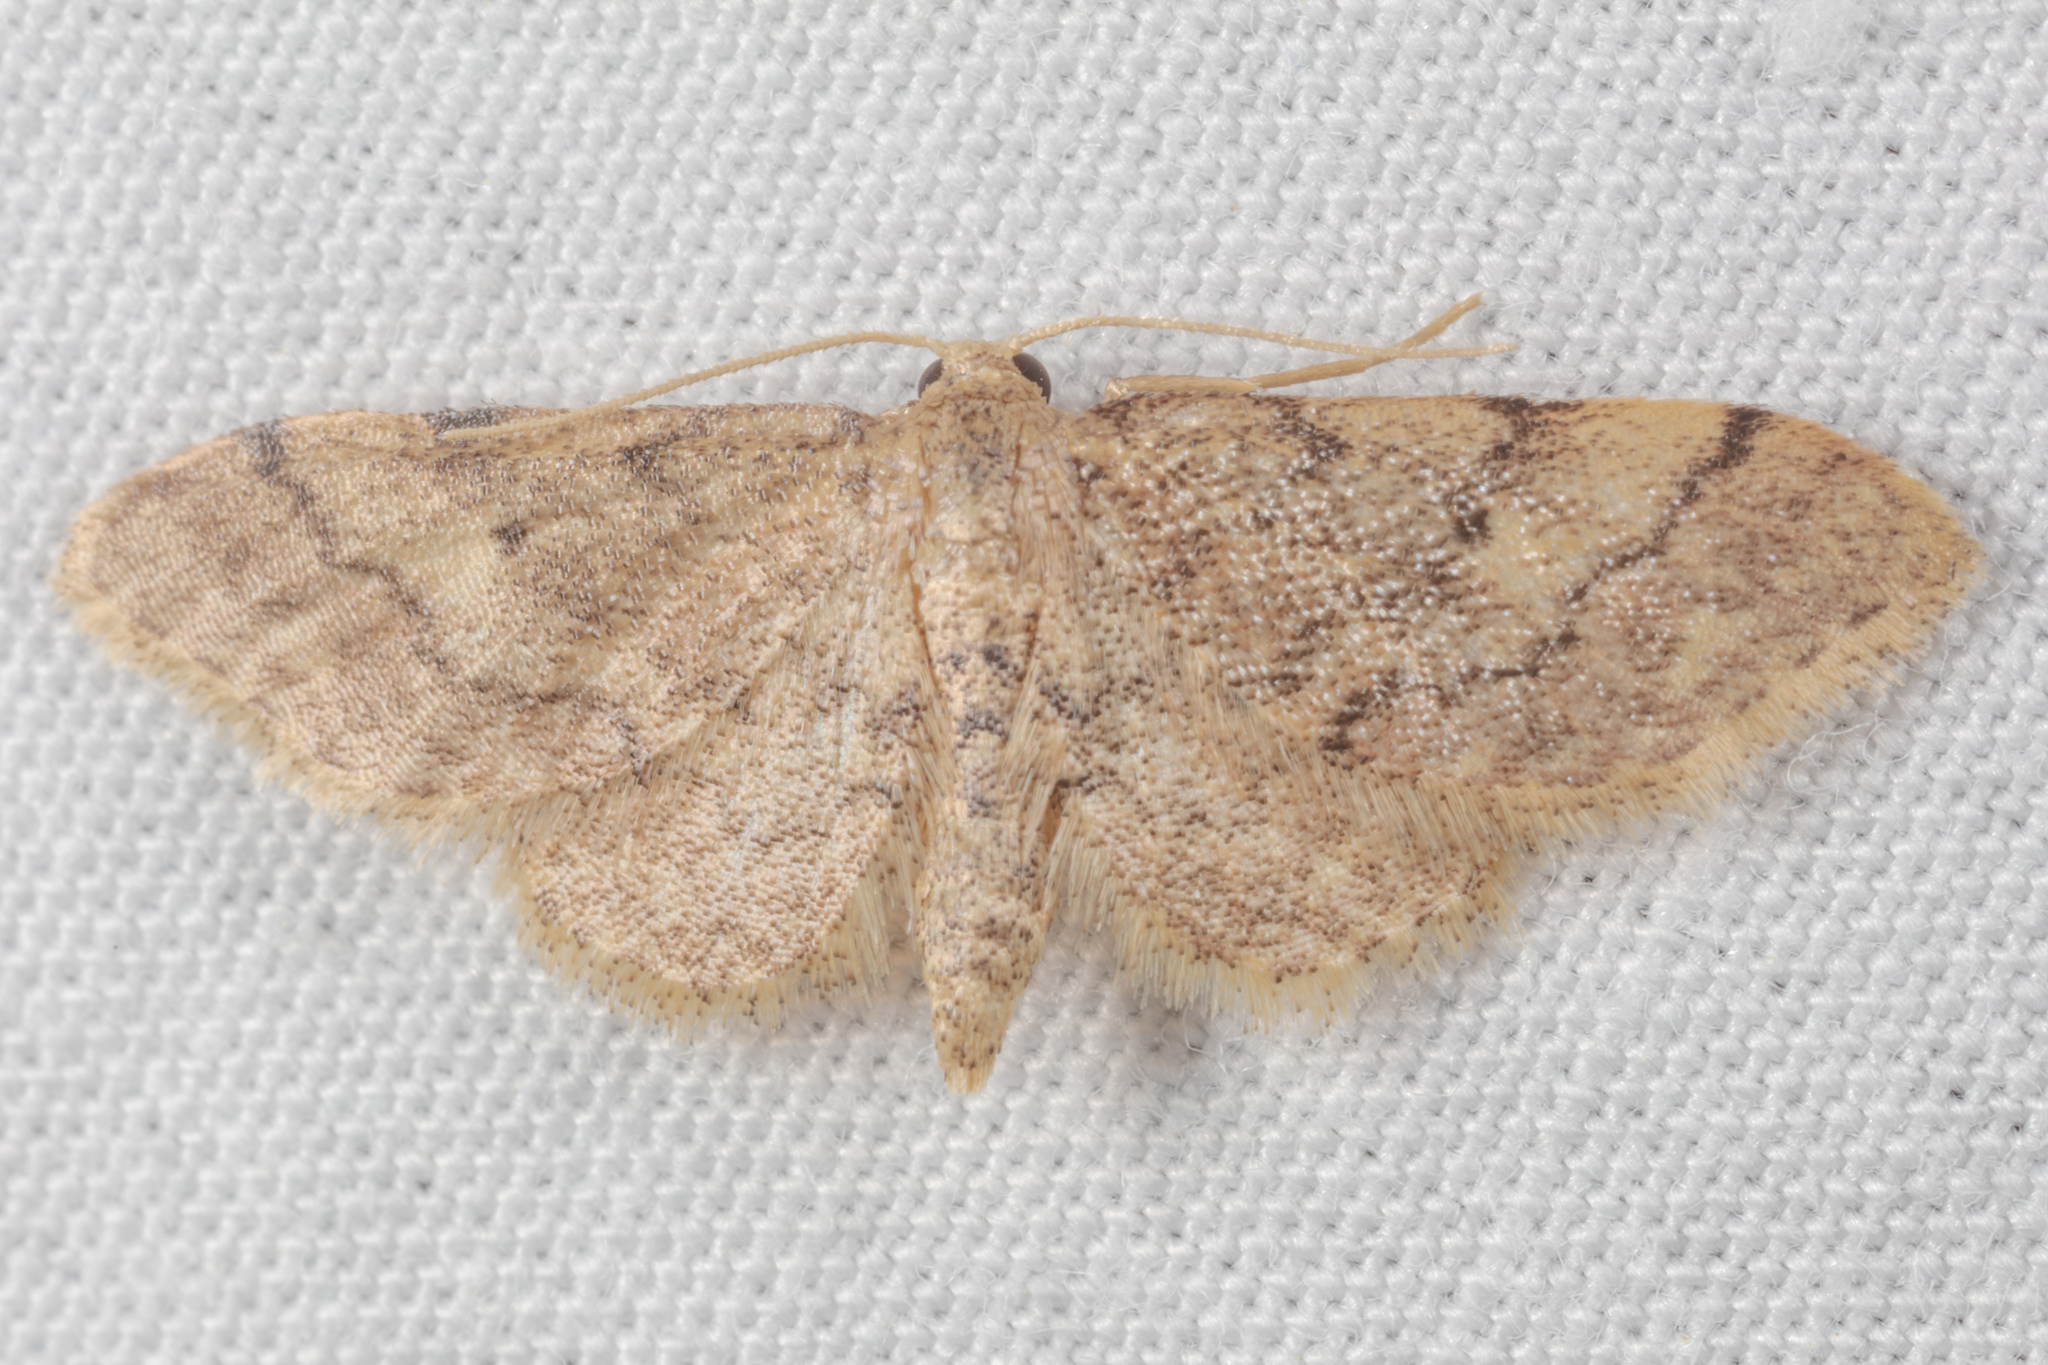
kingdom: Animalia
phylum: Arthropoda
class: Insecta
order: Lepidoptera
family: Geometridae
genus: Idaea
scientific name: Idaea celtima
